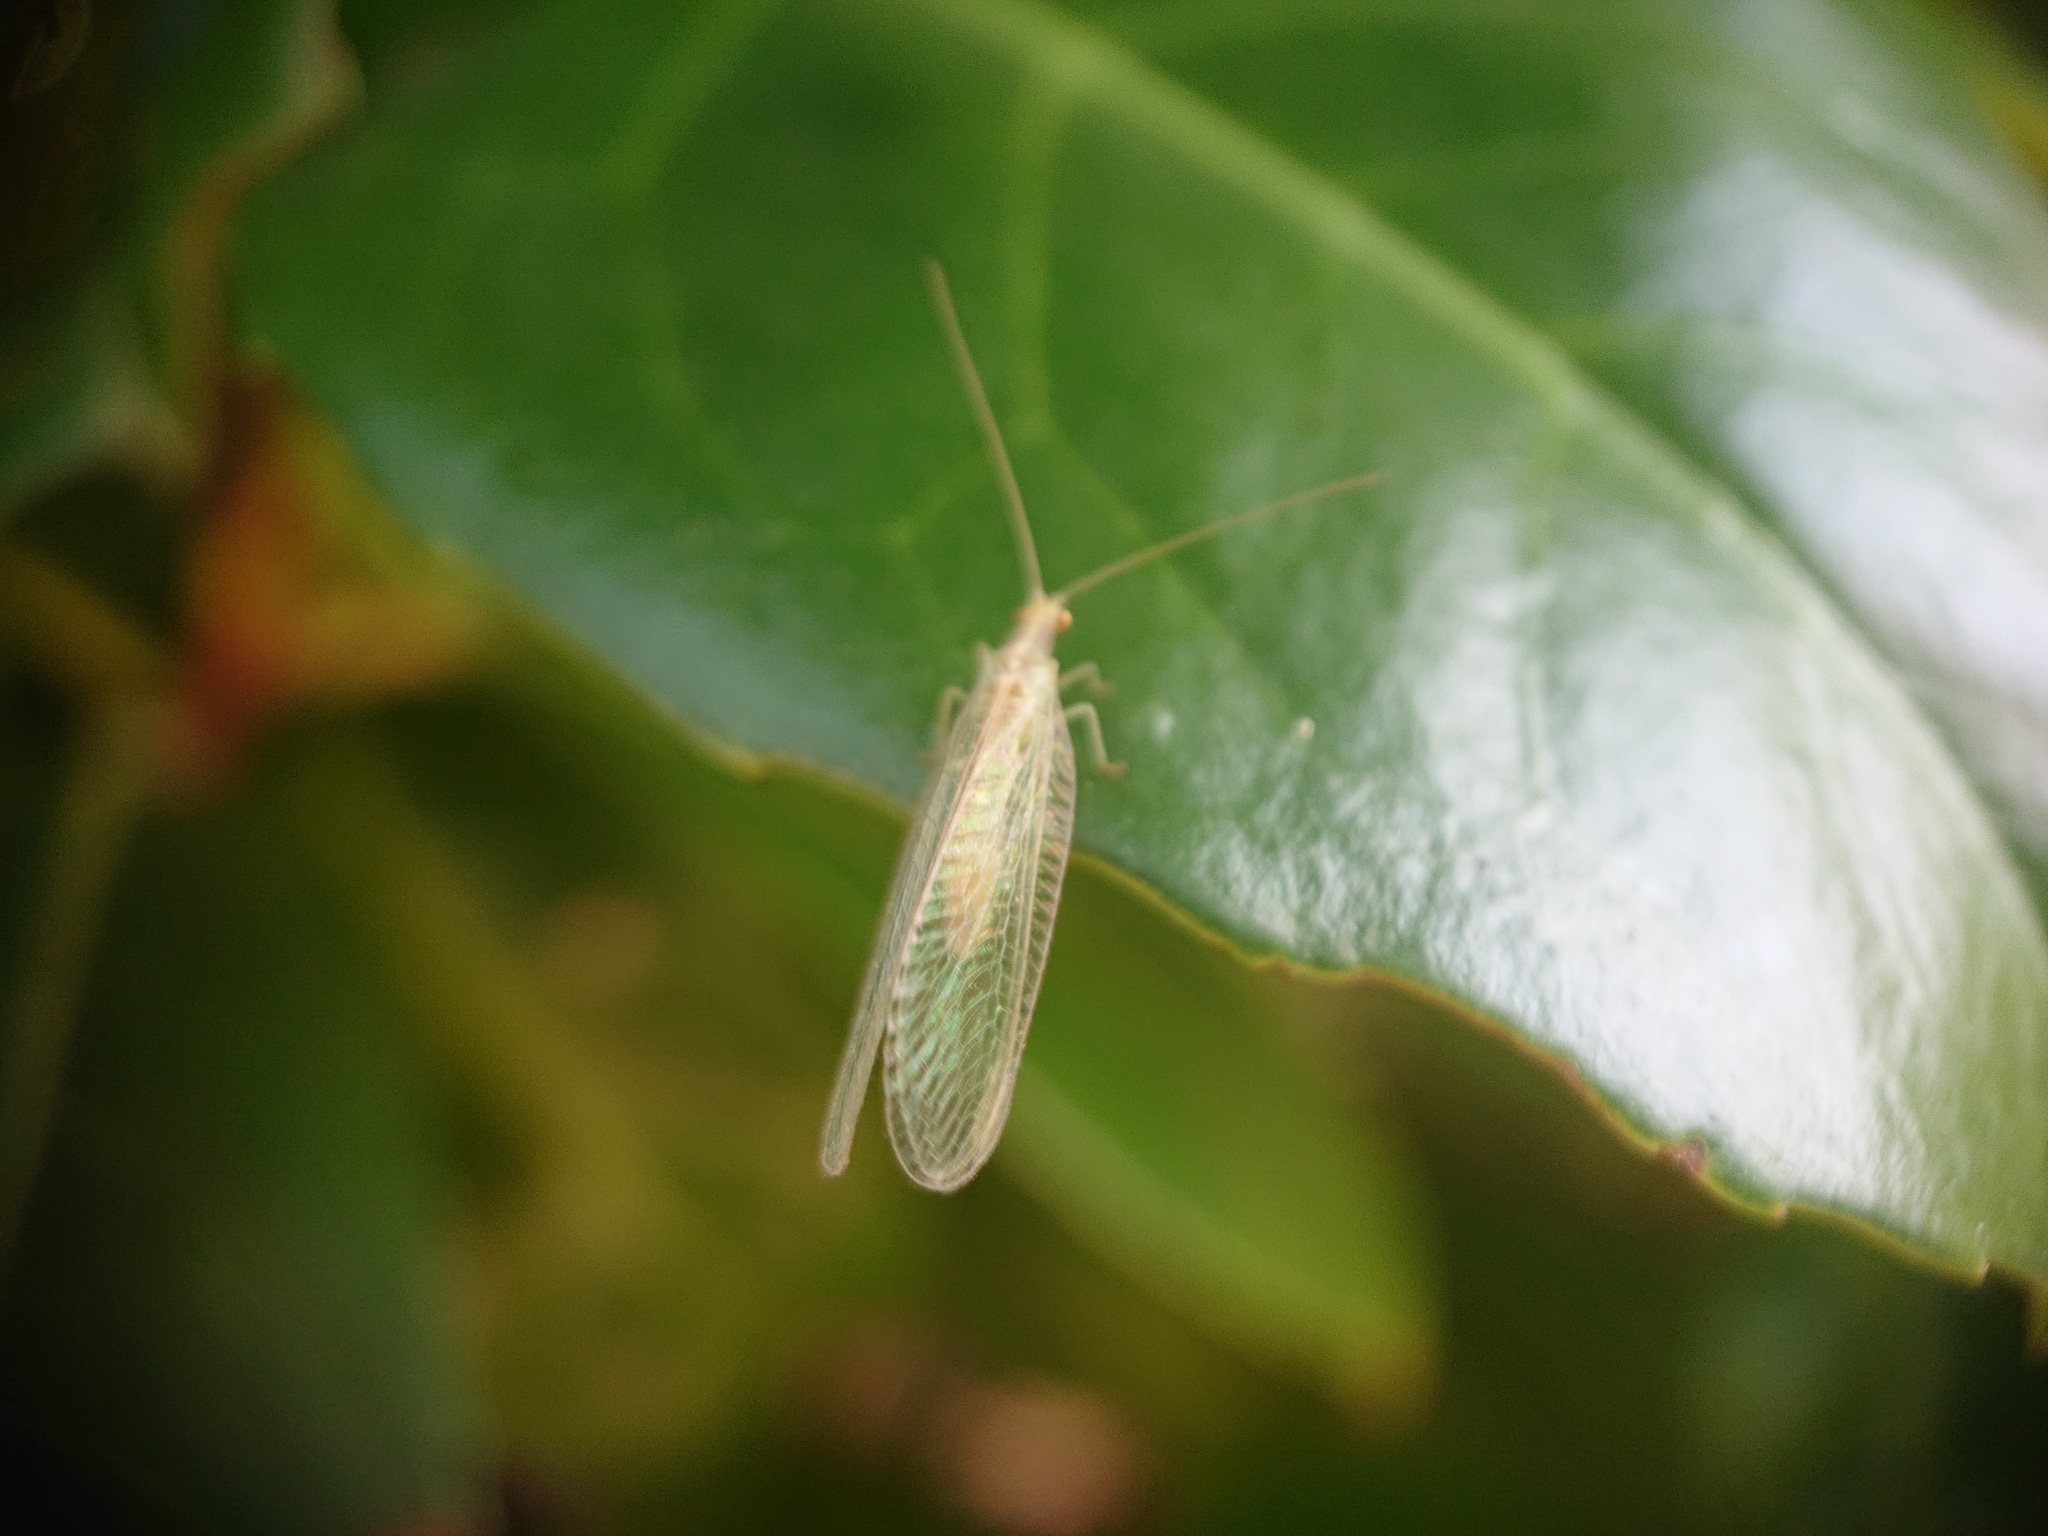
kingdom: Animalia
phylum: Arthropoda
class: Insecta
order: Neuroptera
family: Chrysopidae
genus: Chrysoperla
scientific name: Chrysoperla
